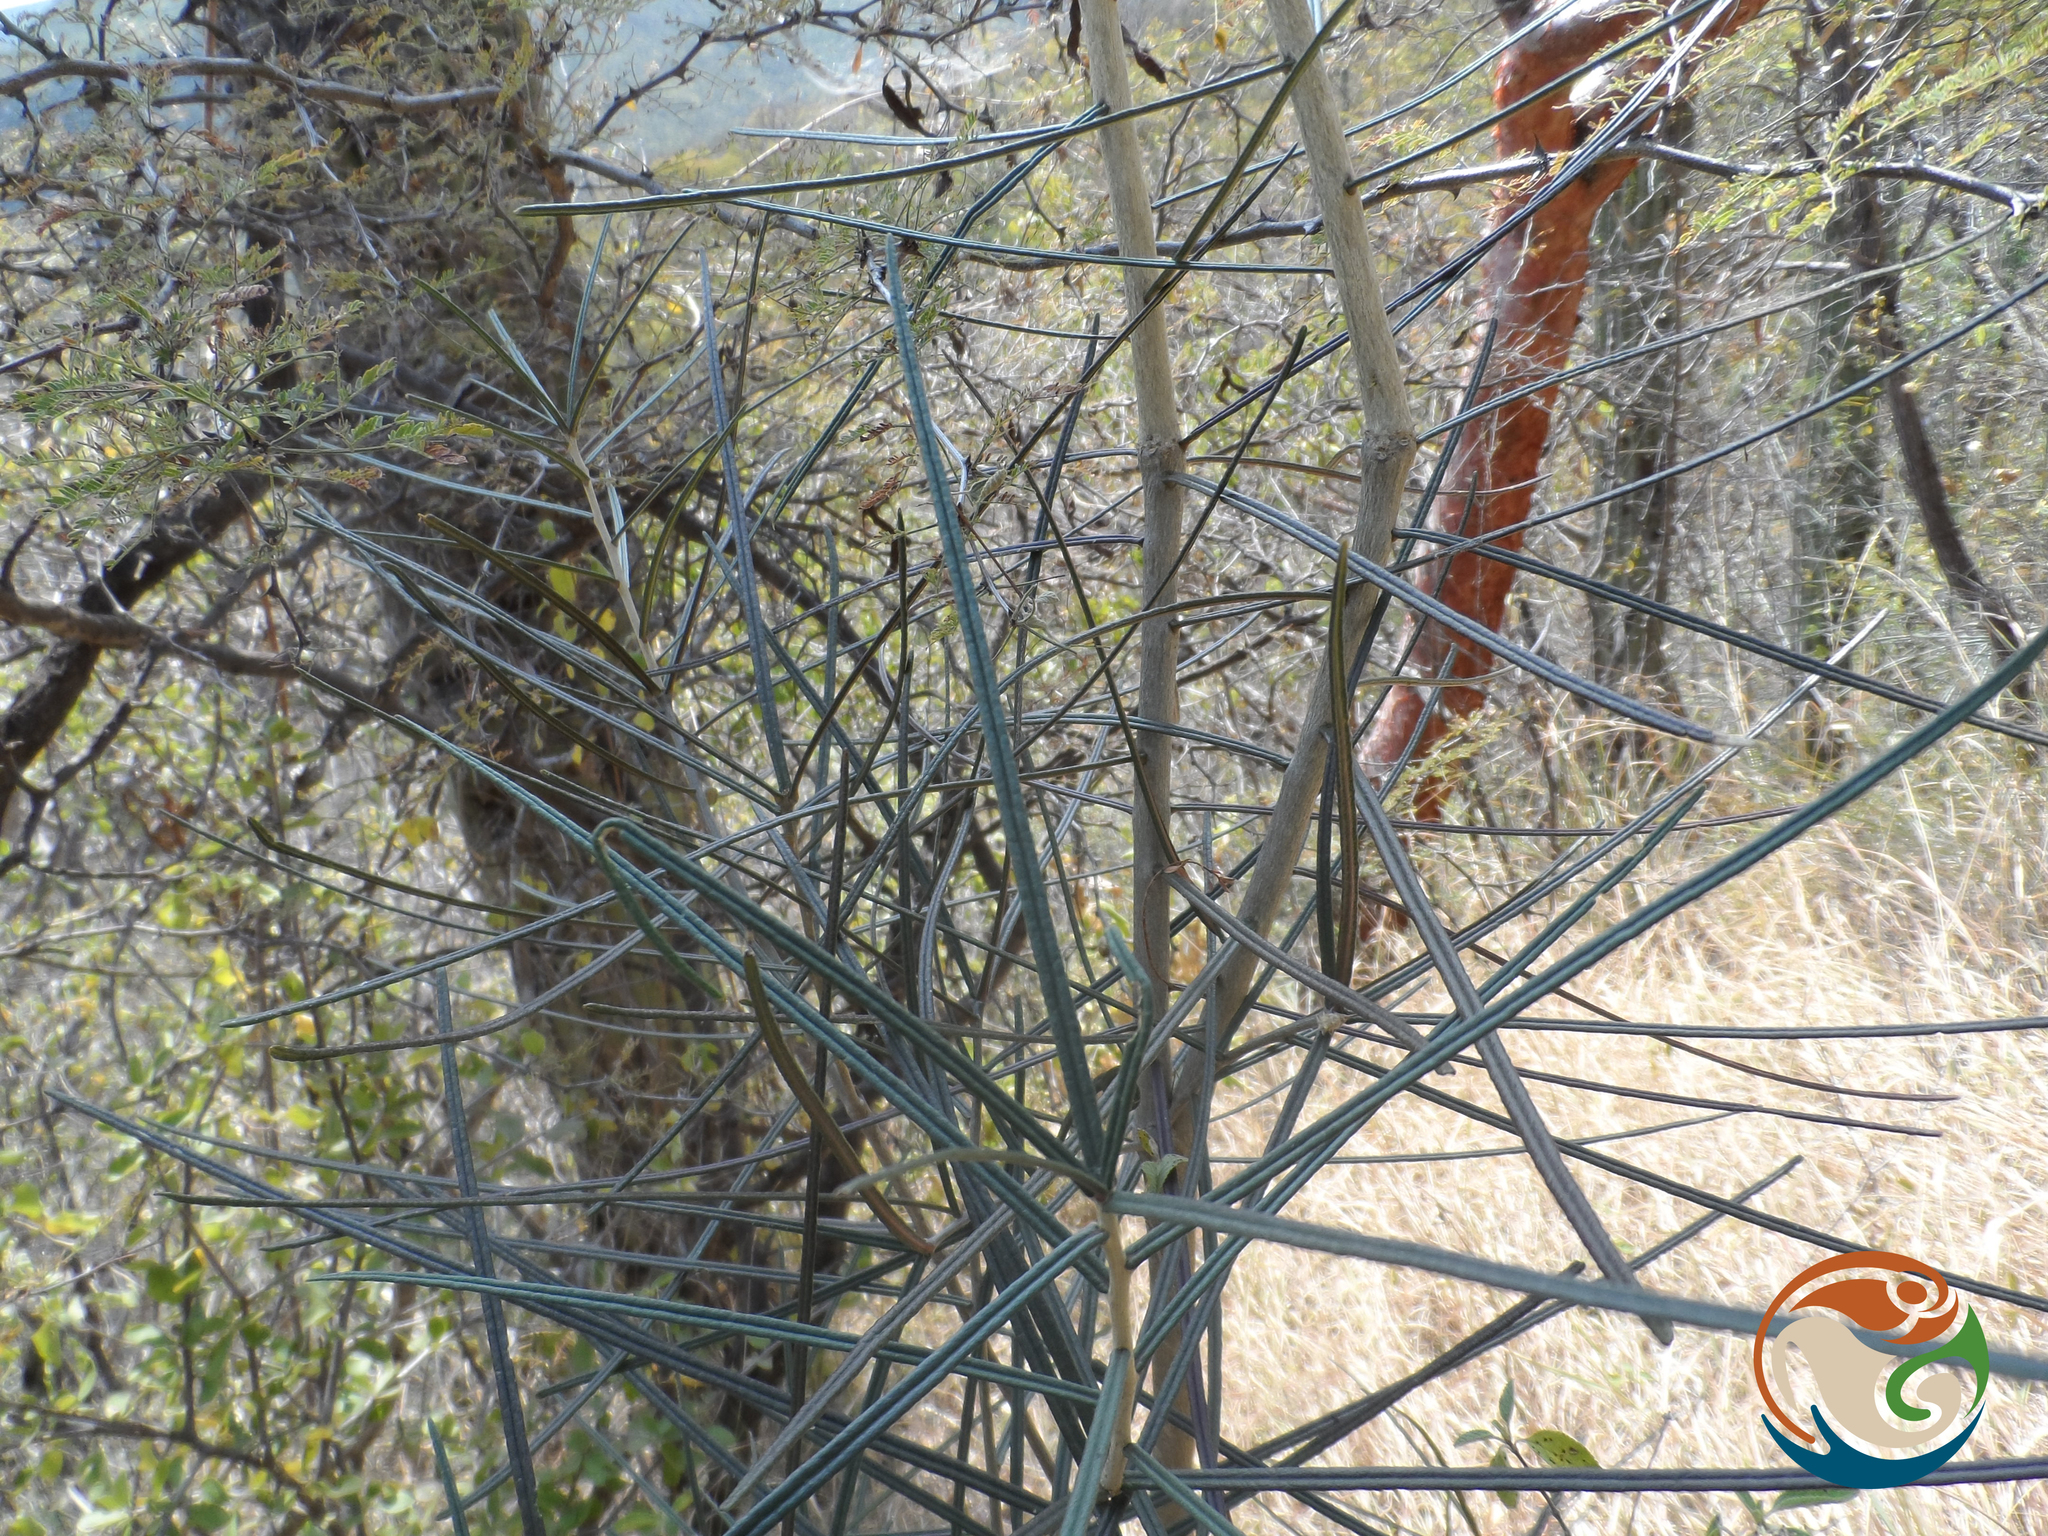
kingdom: Plantae
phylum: Tracheophyta
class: Magnoliopsida
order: Brassicales
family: Stixaceae
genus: Forchhammeria
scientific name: Forchhammeria macrocarpa
